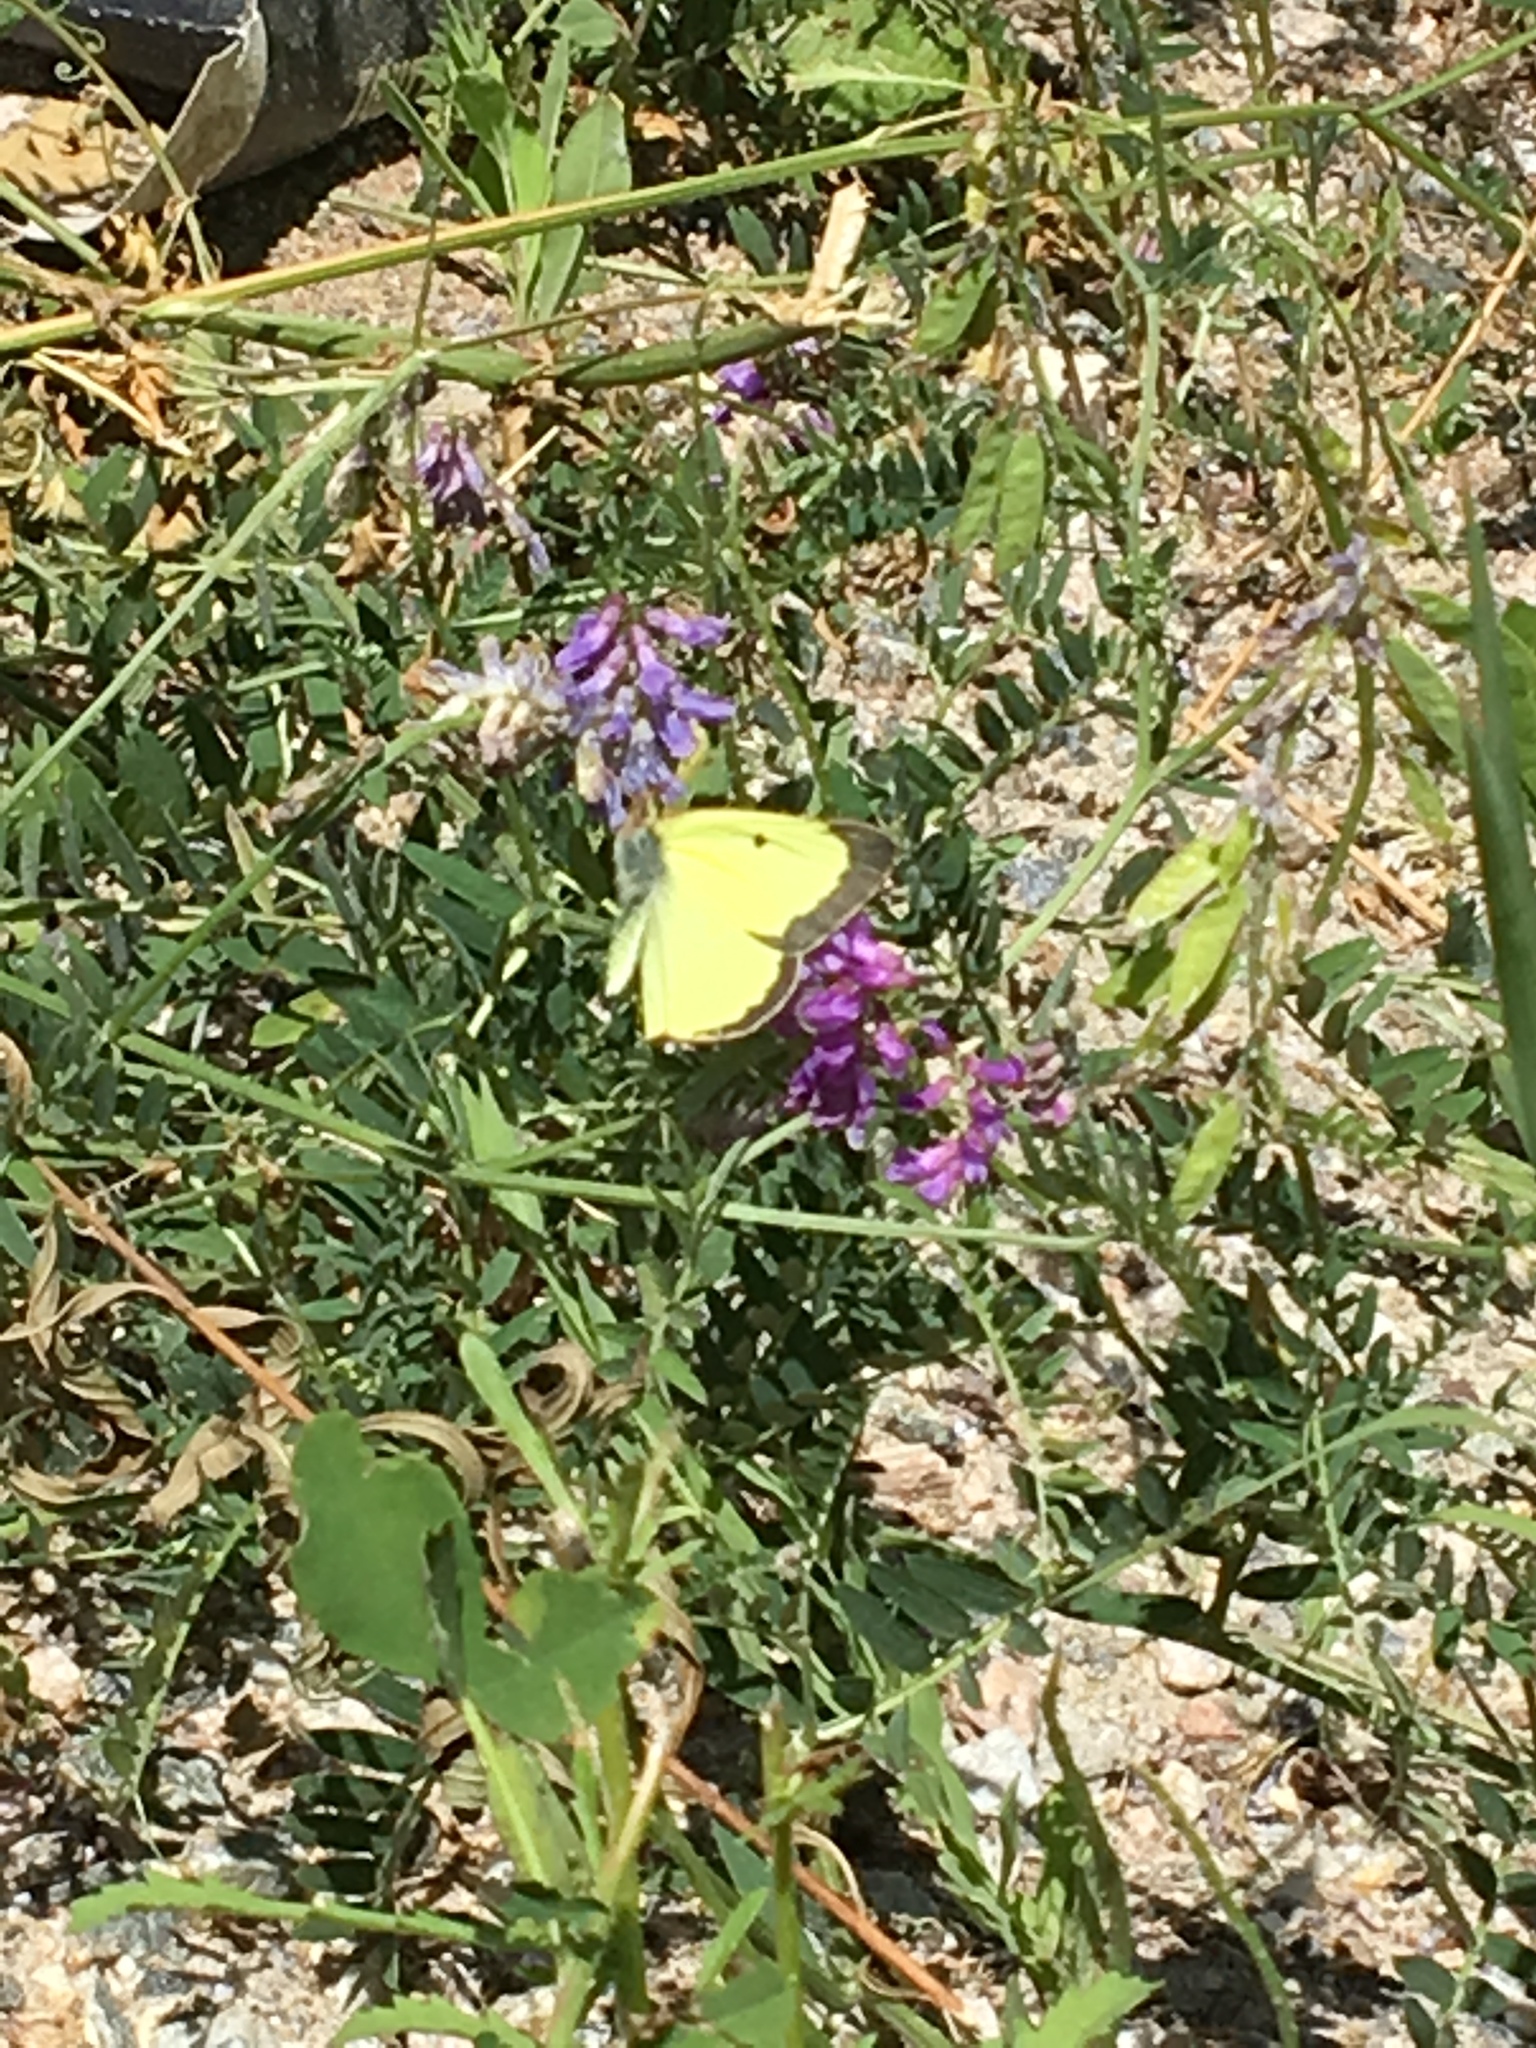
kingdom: Animalia
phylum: Arthropoda
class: Insecta
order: Lepidoptera
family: Pieridae
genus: Colias
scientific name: Colias philodice
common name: Clouded sulphur
